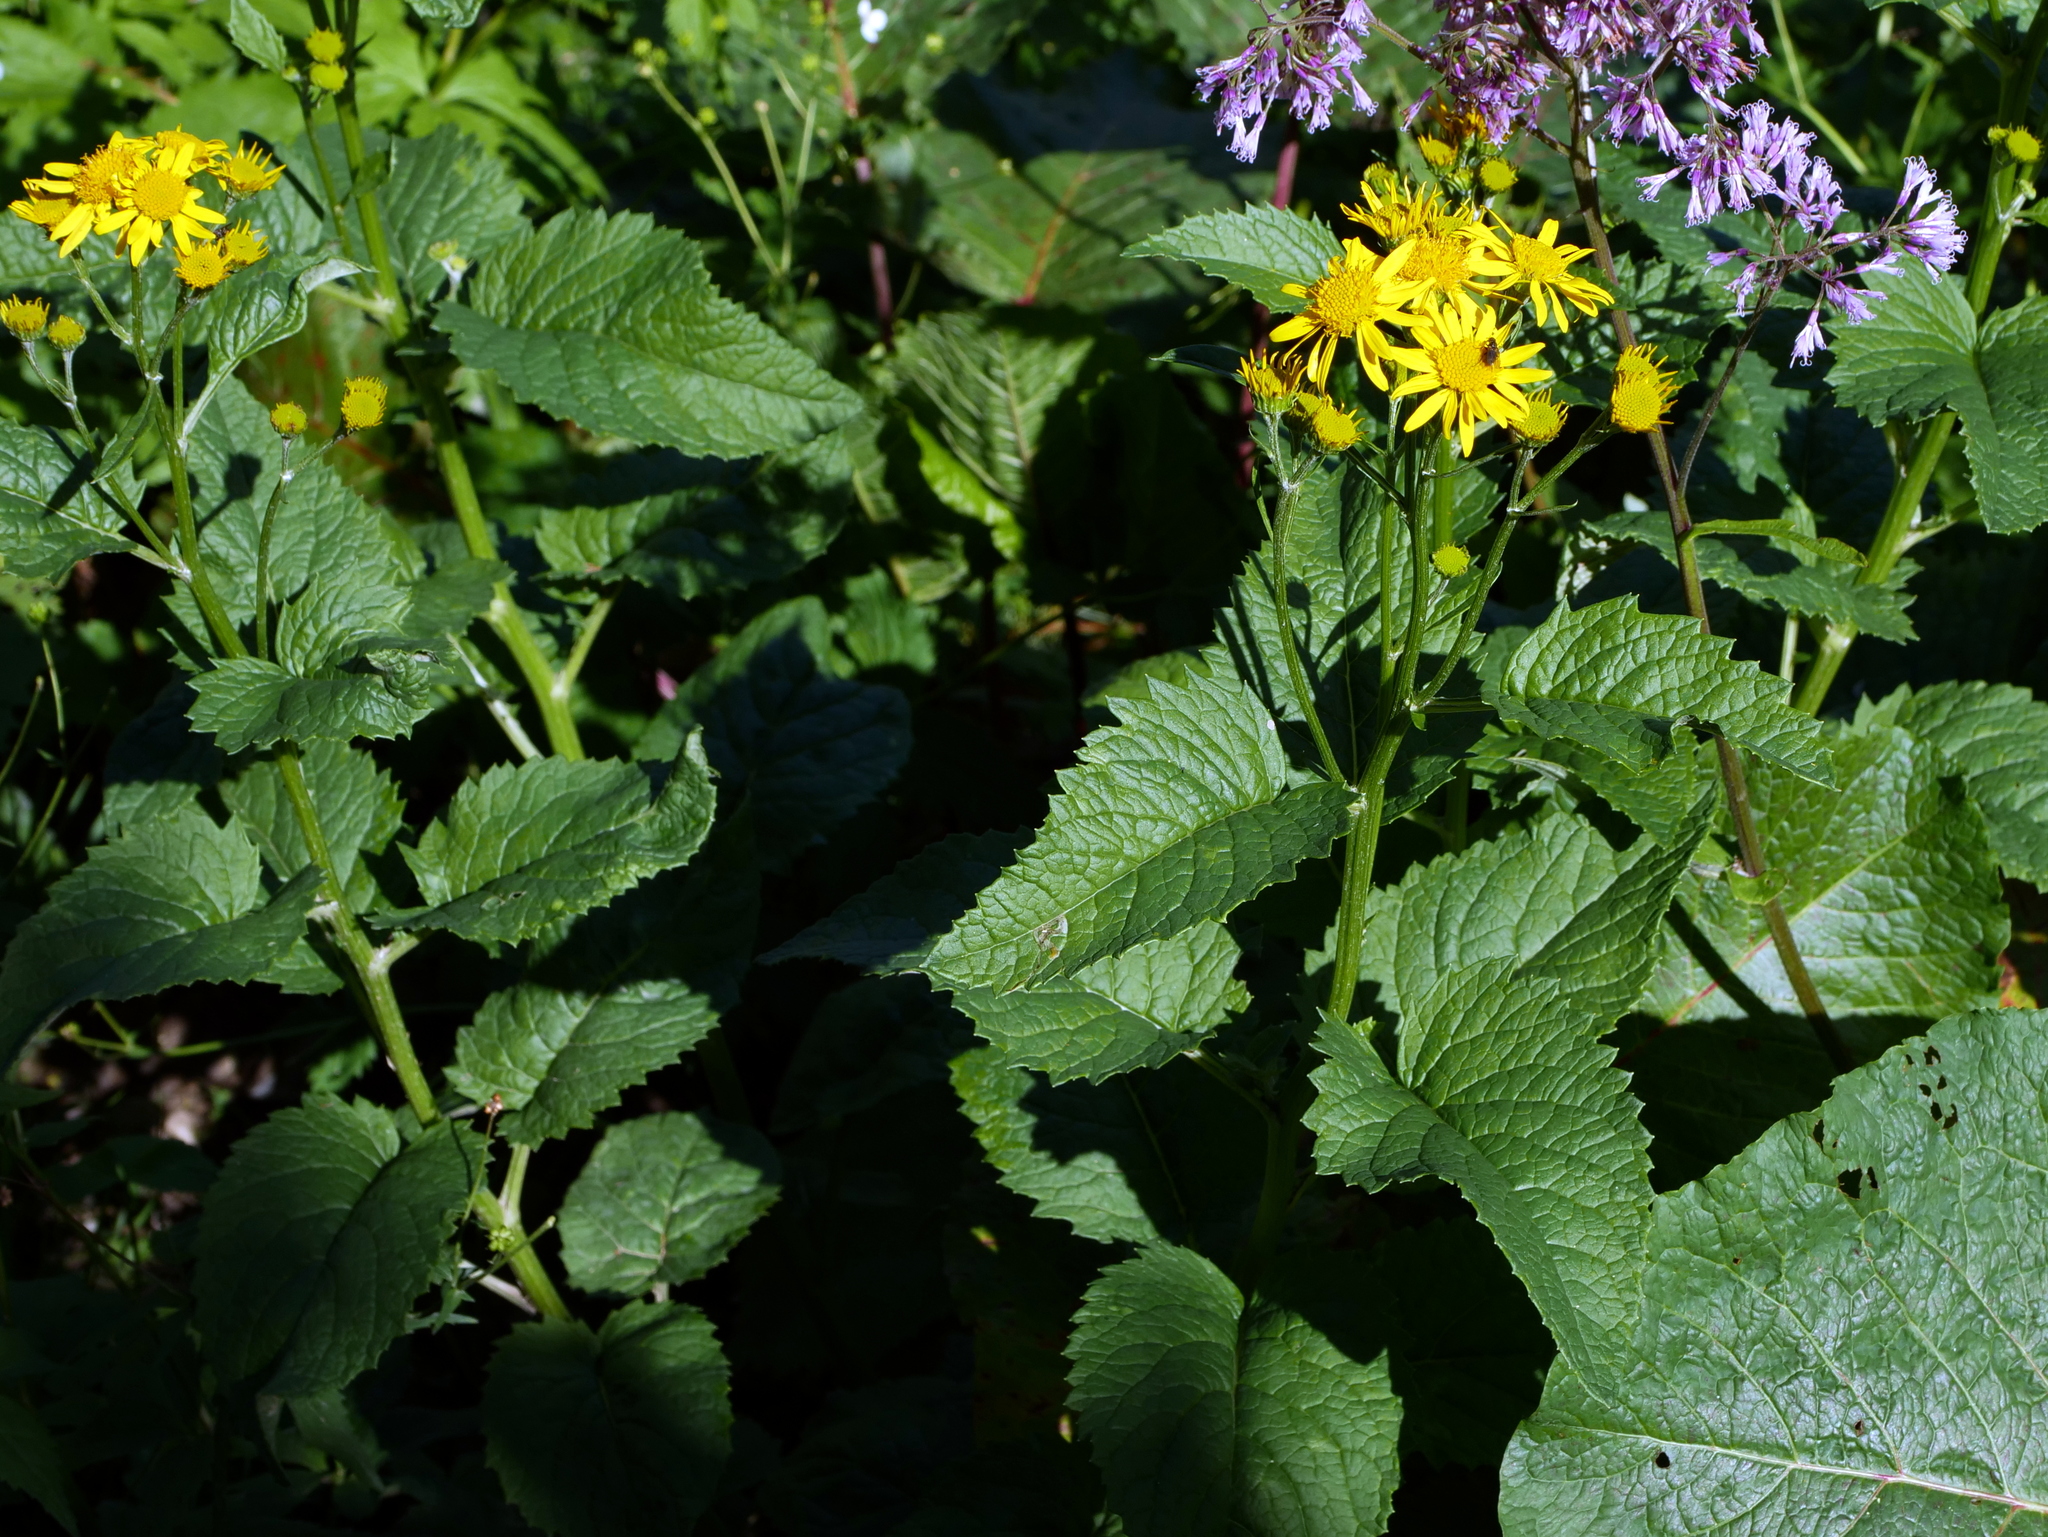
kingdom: Plantae
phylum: Tracheophyta
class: Magnoliopsida
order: Asterales
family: Asteraceae
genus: Jacobaea
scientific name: Jacobaea alpina
